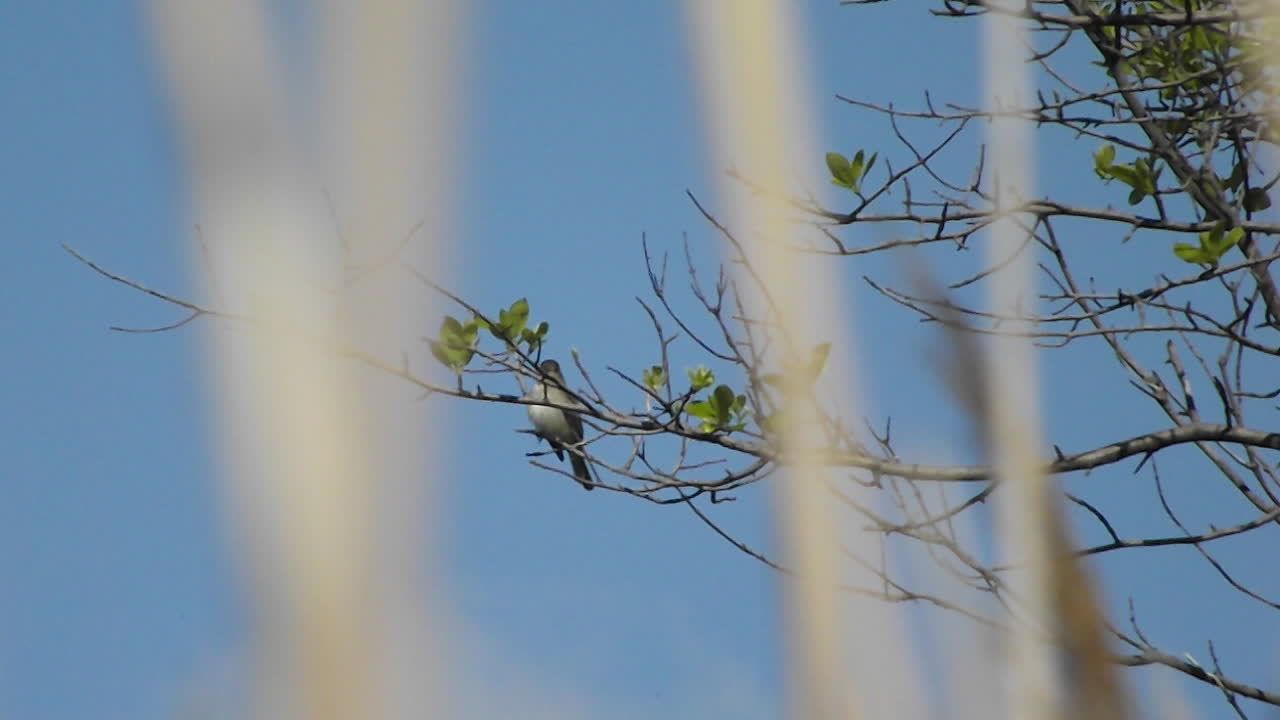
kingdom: Animalia
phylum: Chordata
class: Aves
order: Passeriformes
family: Tyrannidae
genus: Empidonax
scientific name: Empidonax traillii
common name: Willow flycatcher
